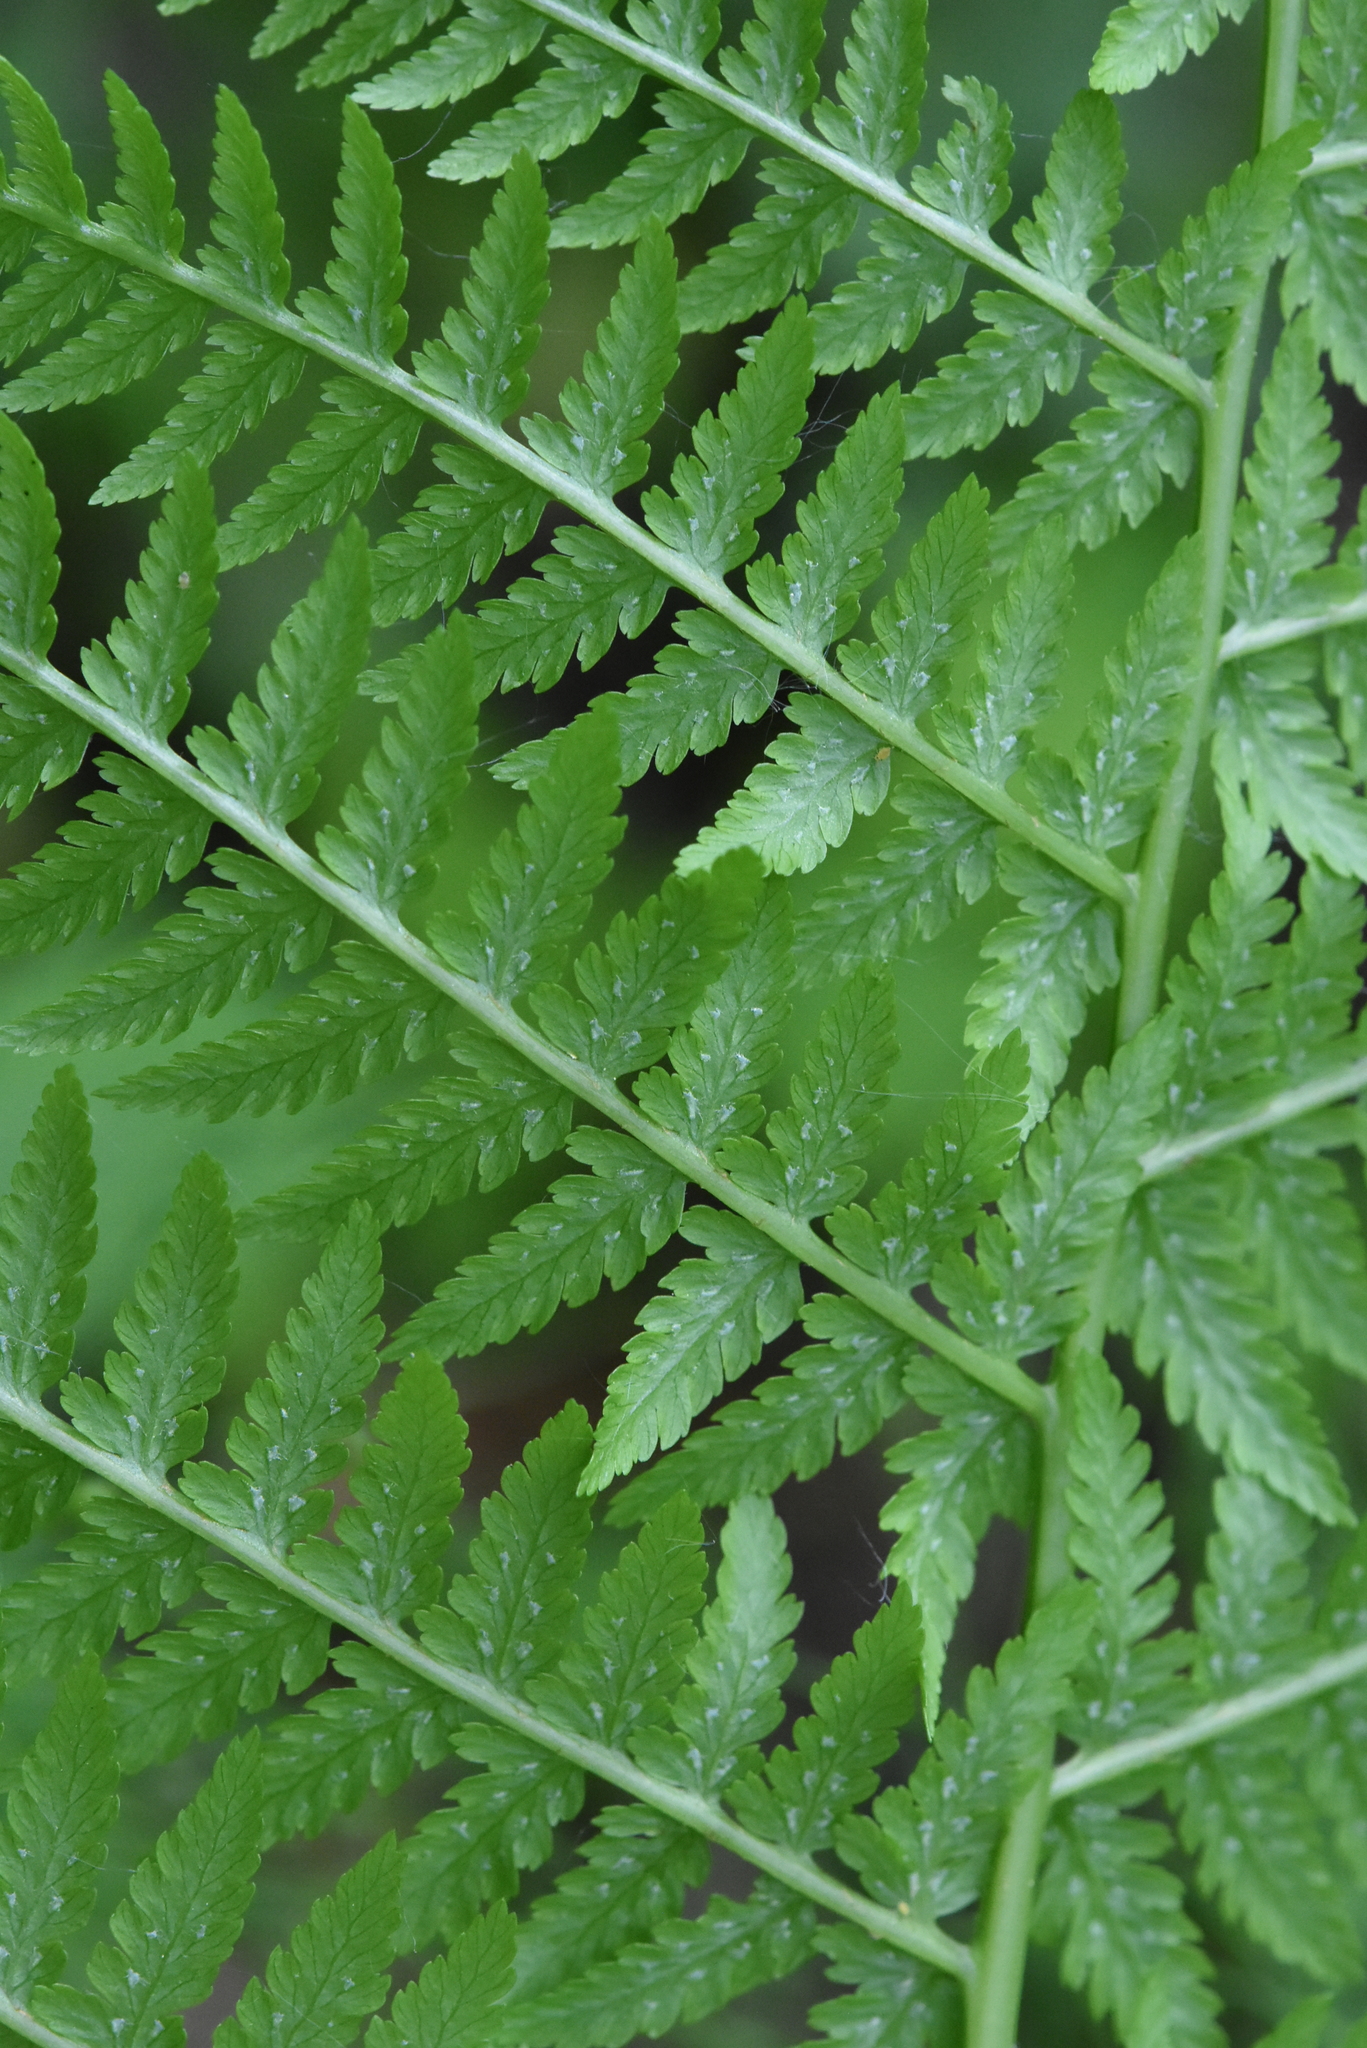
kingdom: Plantae
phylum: Tracheophyta
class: Polypodiopsida
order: Polypodiales
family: Athyriaceae
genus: Athyrium
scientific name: Athyrium filix-femina
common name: Lady fern
